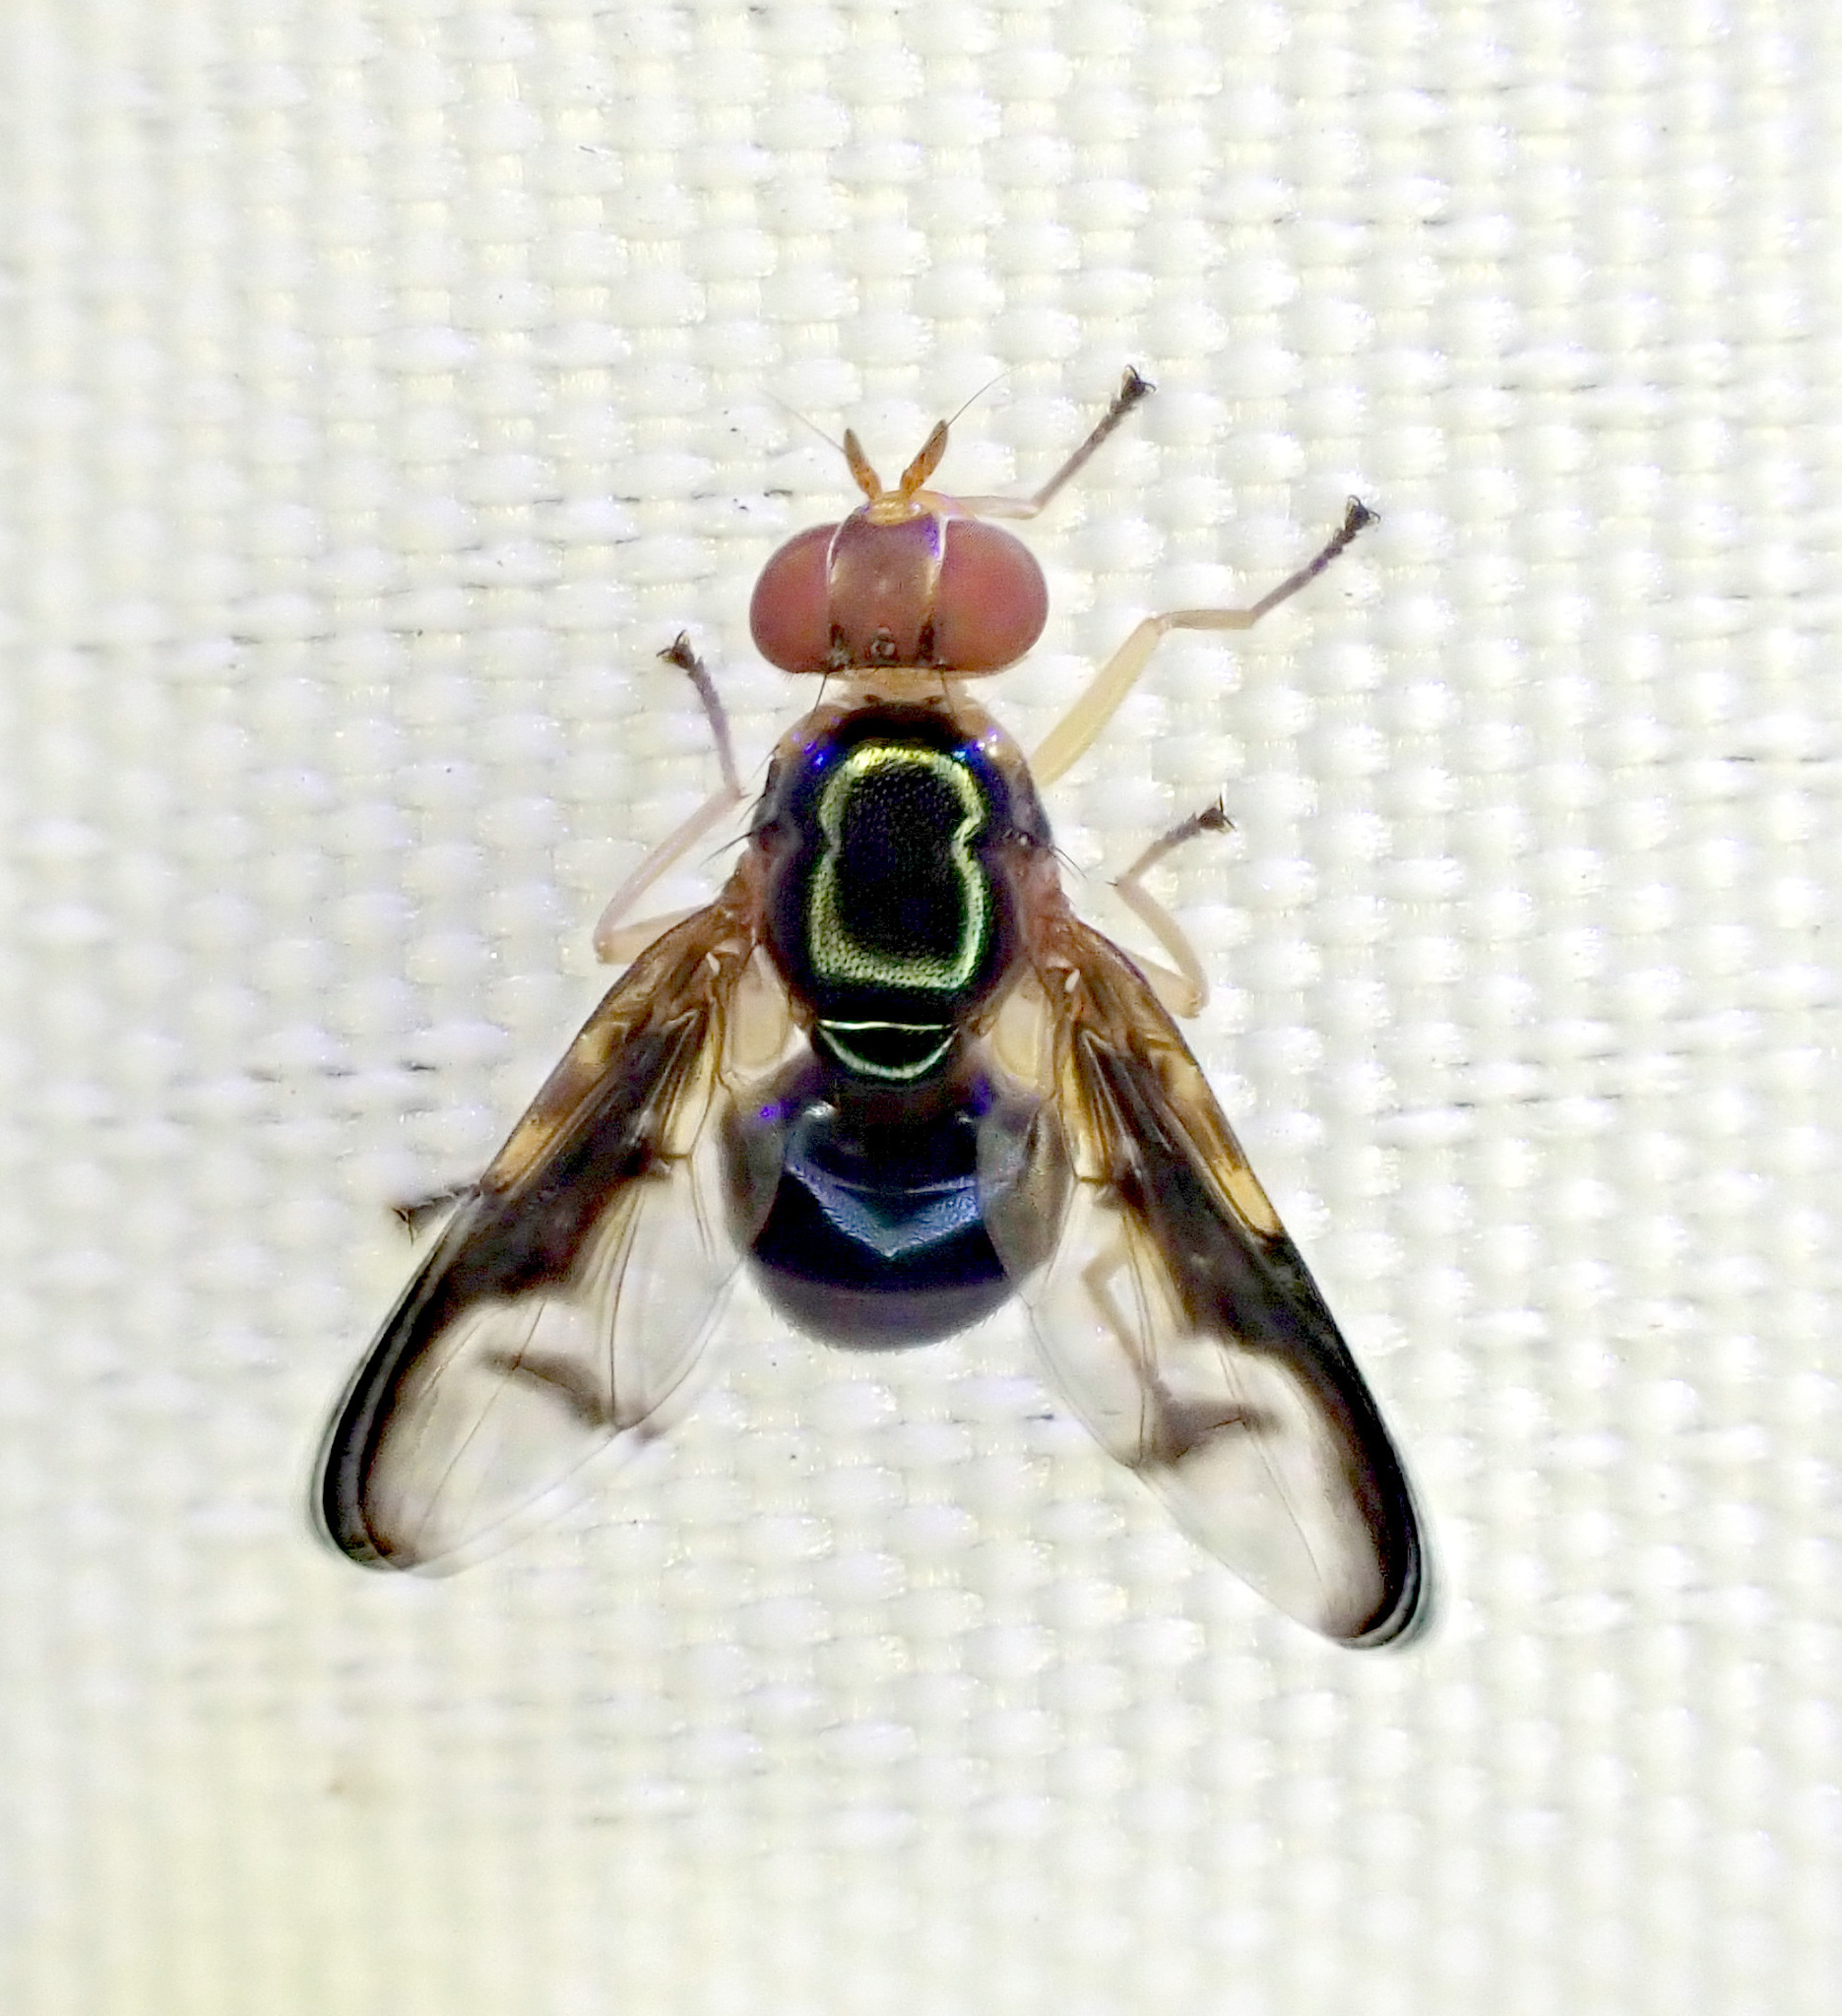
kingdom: Animalia
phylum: Arthropoda
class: Insecta
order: Diptera
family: Platystomatidae
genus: Lamprogaster
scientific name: Lamprogaster stenoparia
